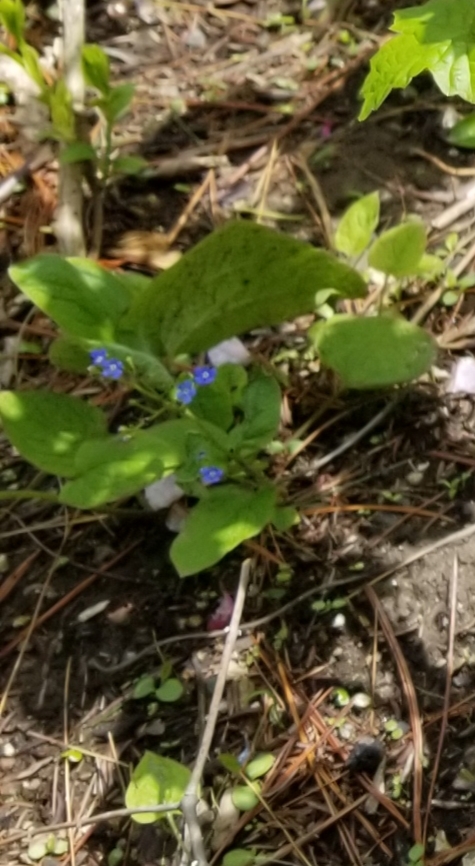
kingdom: Plantae
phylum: Tracheophyta
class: Magnoliopsida
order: Boraginales
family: Boraginaceae
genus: Mertensia
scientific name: Mertensia virginica
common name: Virginia bluebells
